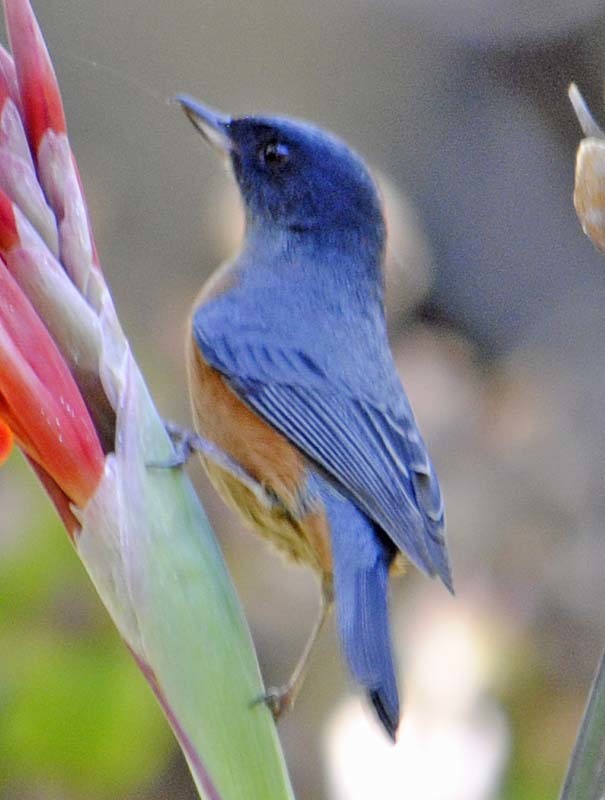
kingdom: Animalia
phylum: Chordata
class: Aves
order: Passeriformes
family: Thraupidae
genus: Diglossa
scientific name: Diglossa baritula
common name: Cinnamon-bellied flowerpiercer
